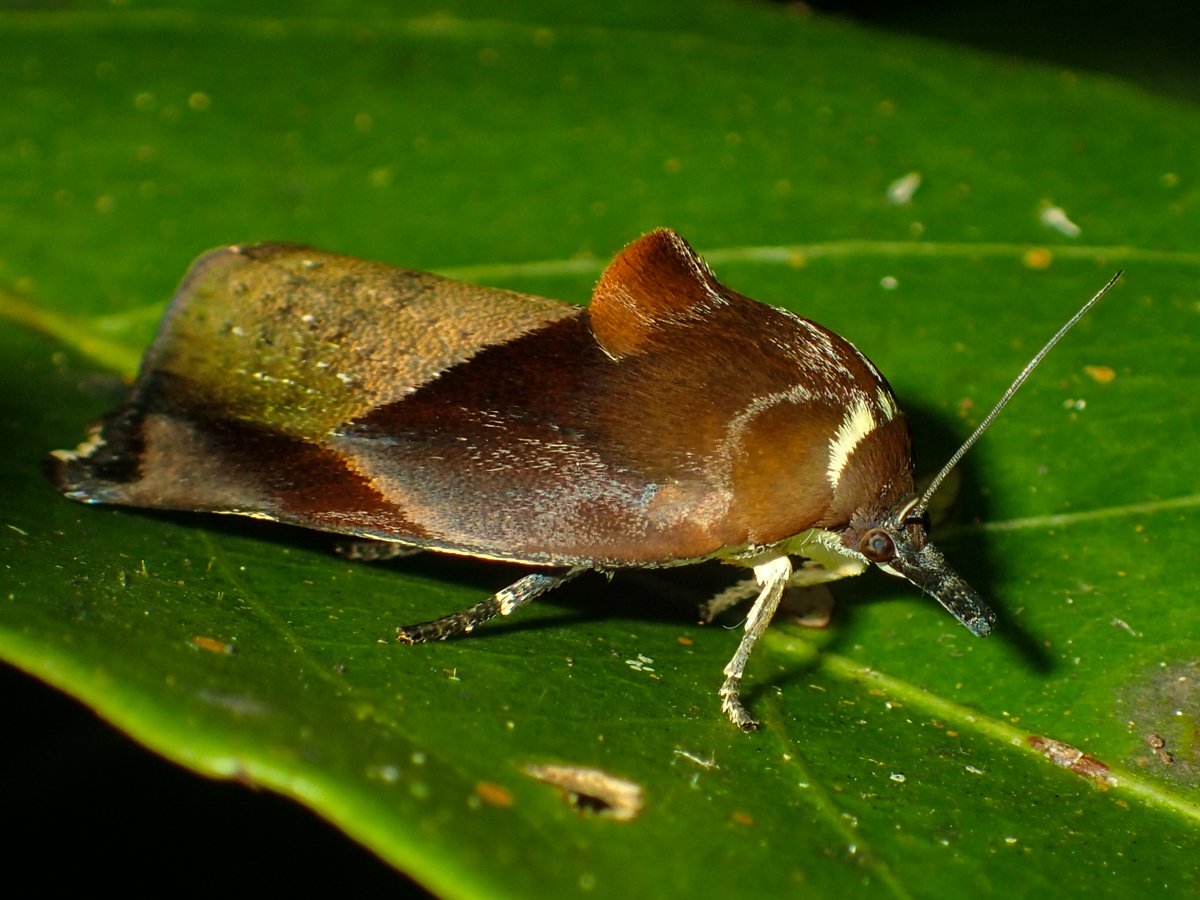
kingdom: Animalia
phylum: Arthropoda
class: Insecta
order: Lepidoptera
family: Hyblaeidae
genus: Hyblaea
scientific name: Hyblaea firmamentum
